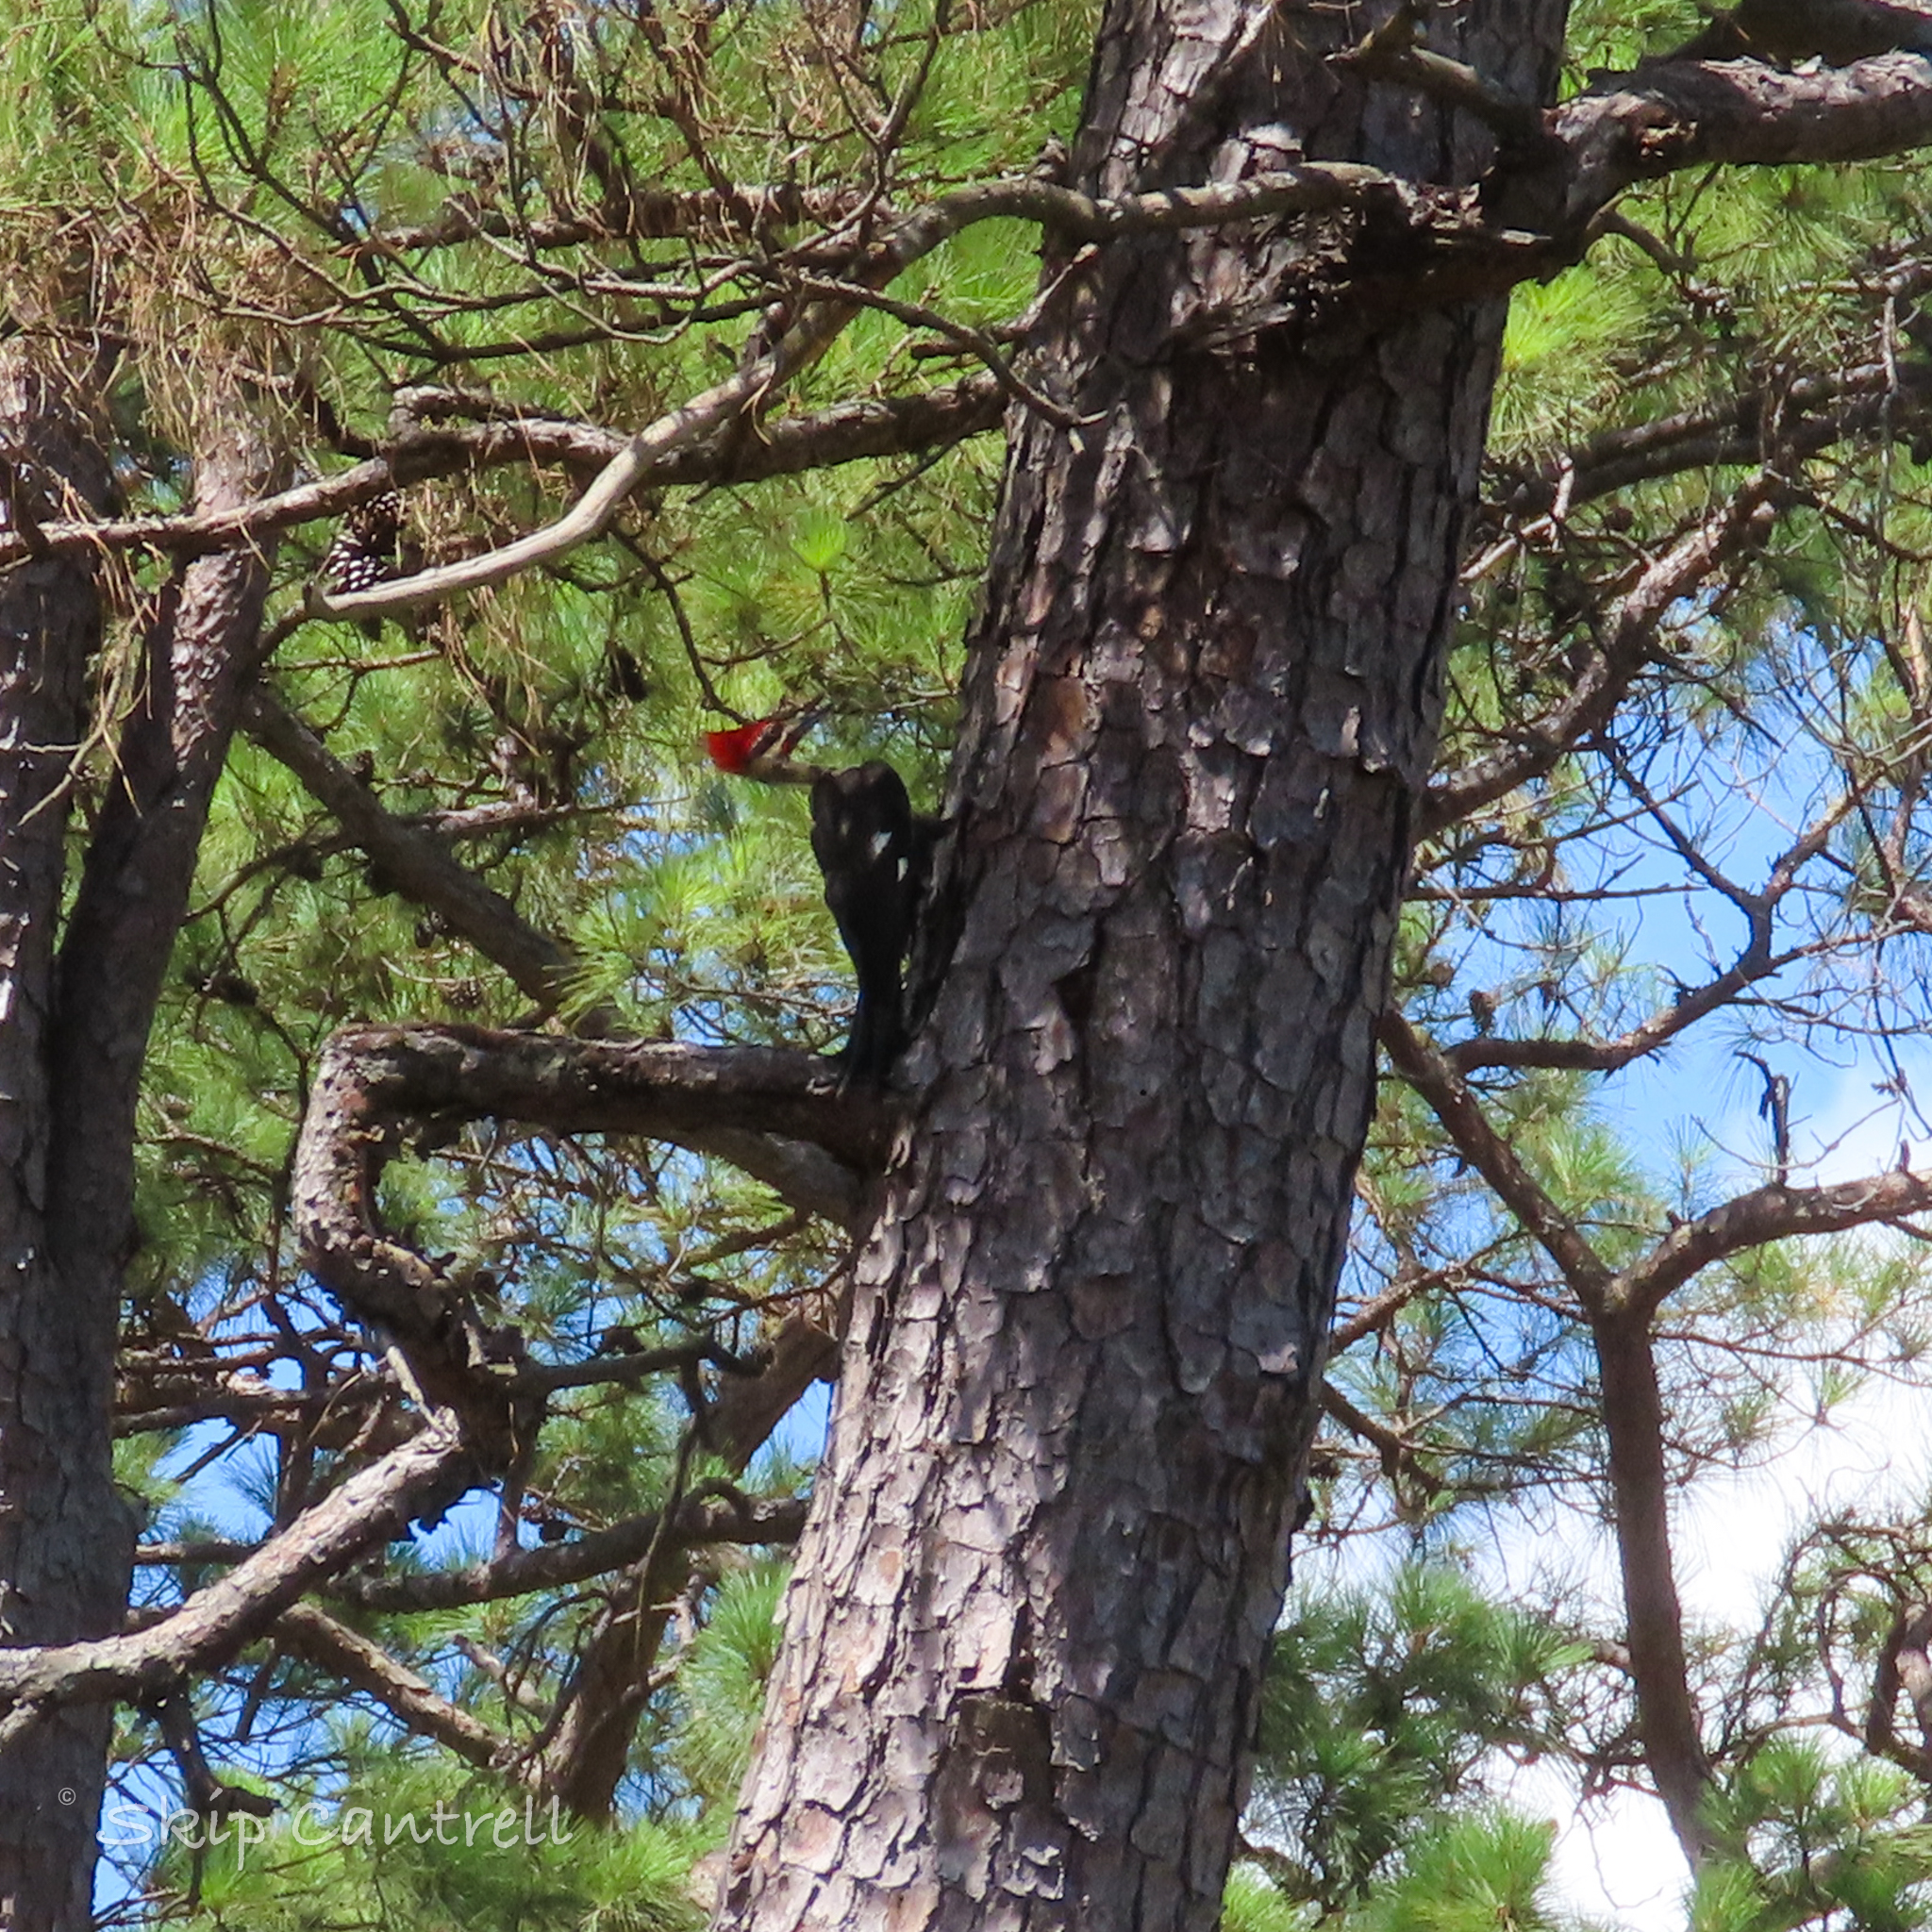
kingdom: Animalia
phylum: Chordata
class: Aves
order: Piciformes
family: Picidae
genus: Dryocopus
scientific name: Dryocopus pileatus
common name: Pileated woodpecker
